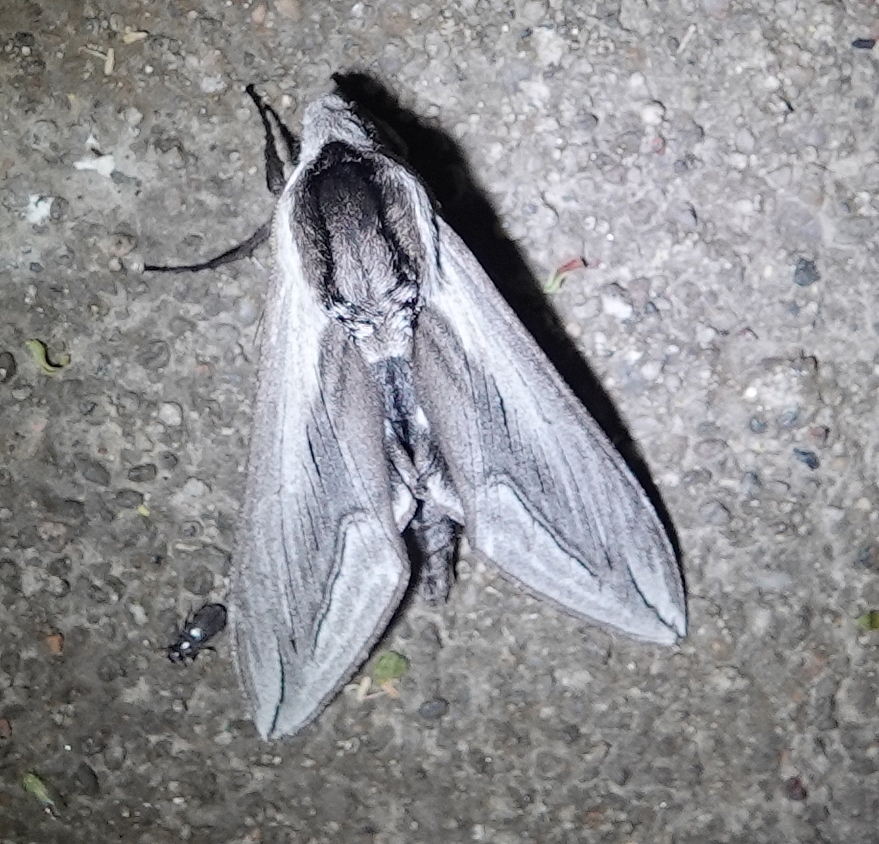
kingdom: Animalia
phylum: Arthropoda
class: Insecta
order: Lepidoptera
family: Sphingidae
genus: Sphinx
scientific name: Sphinx vashti
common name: Snowberry sphinx
